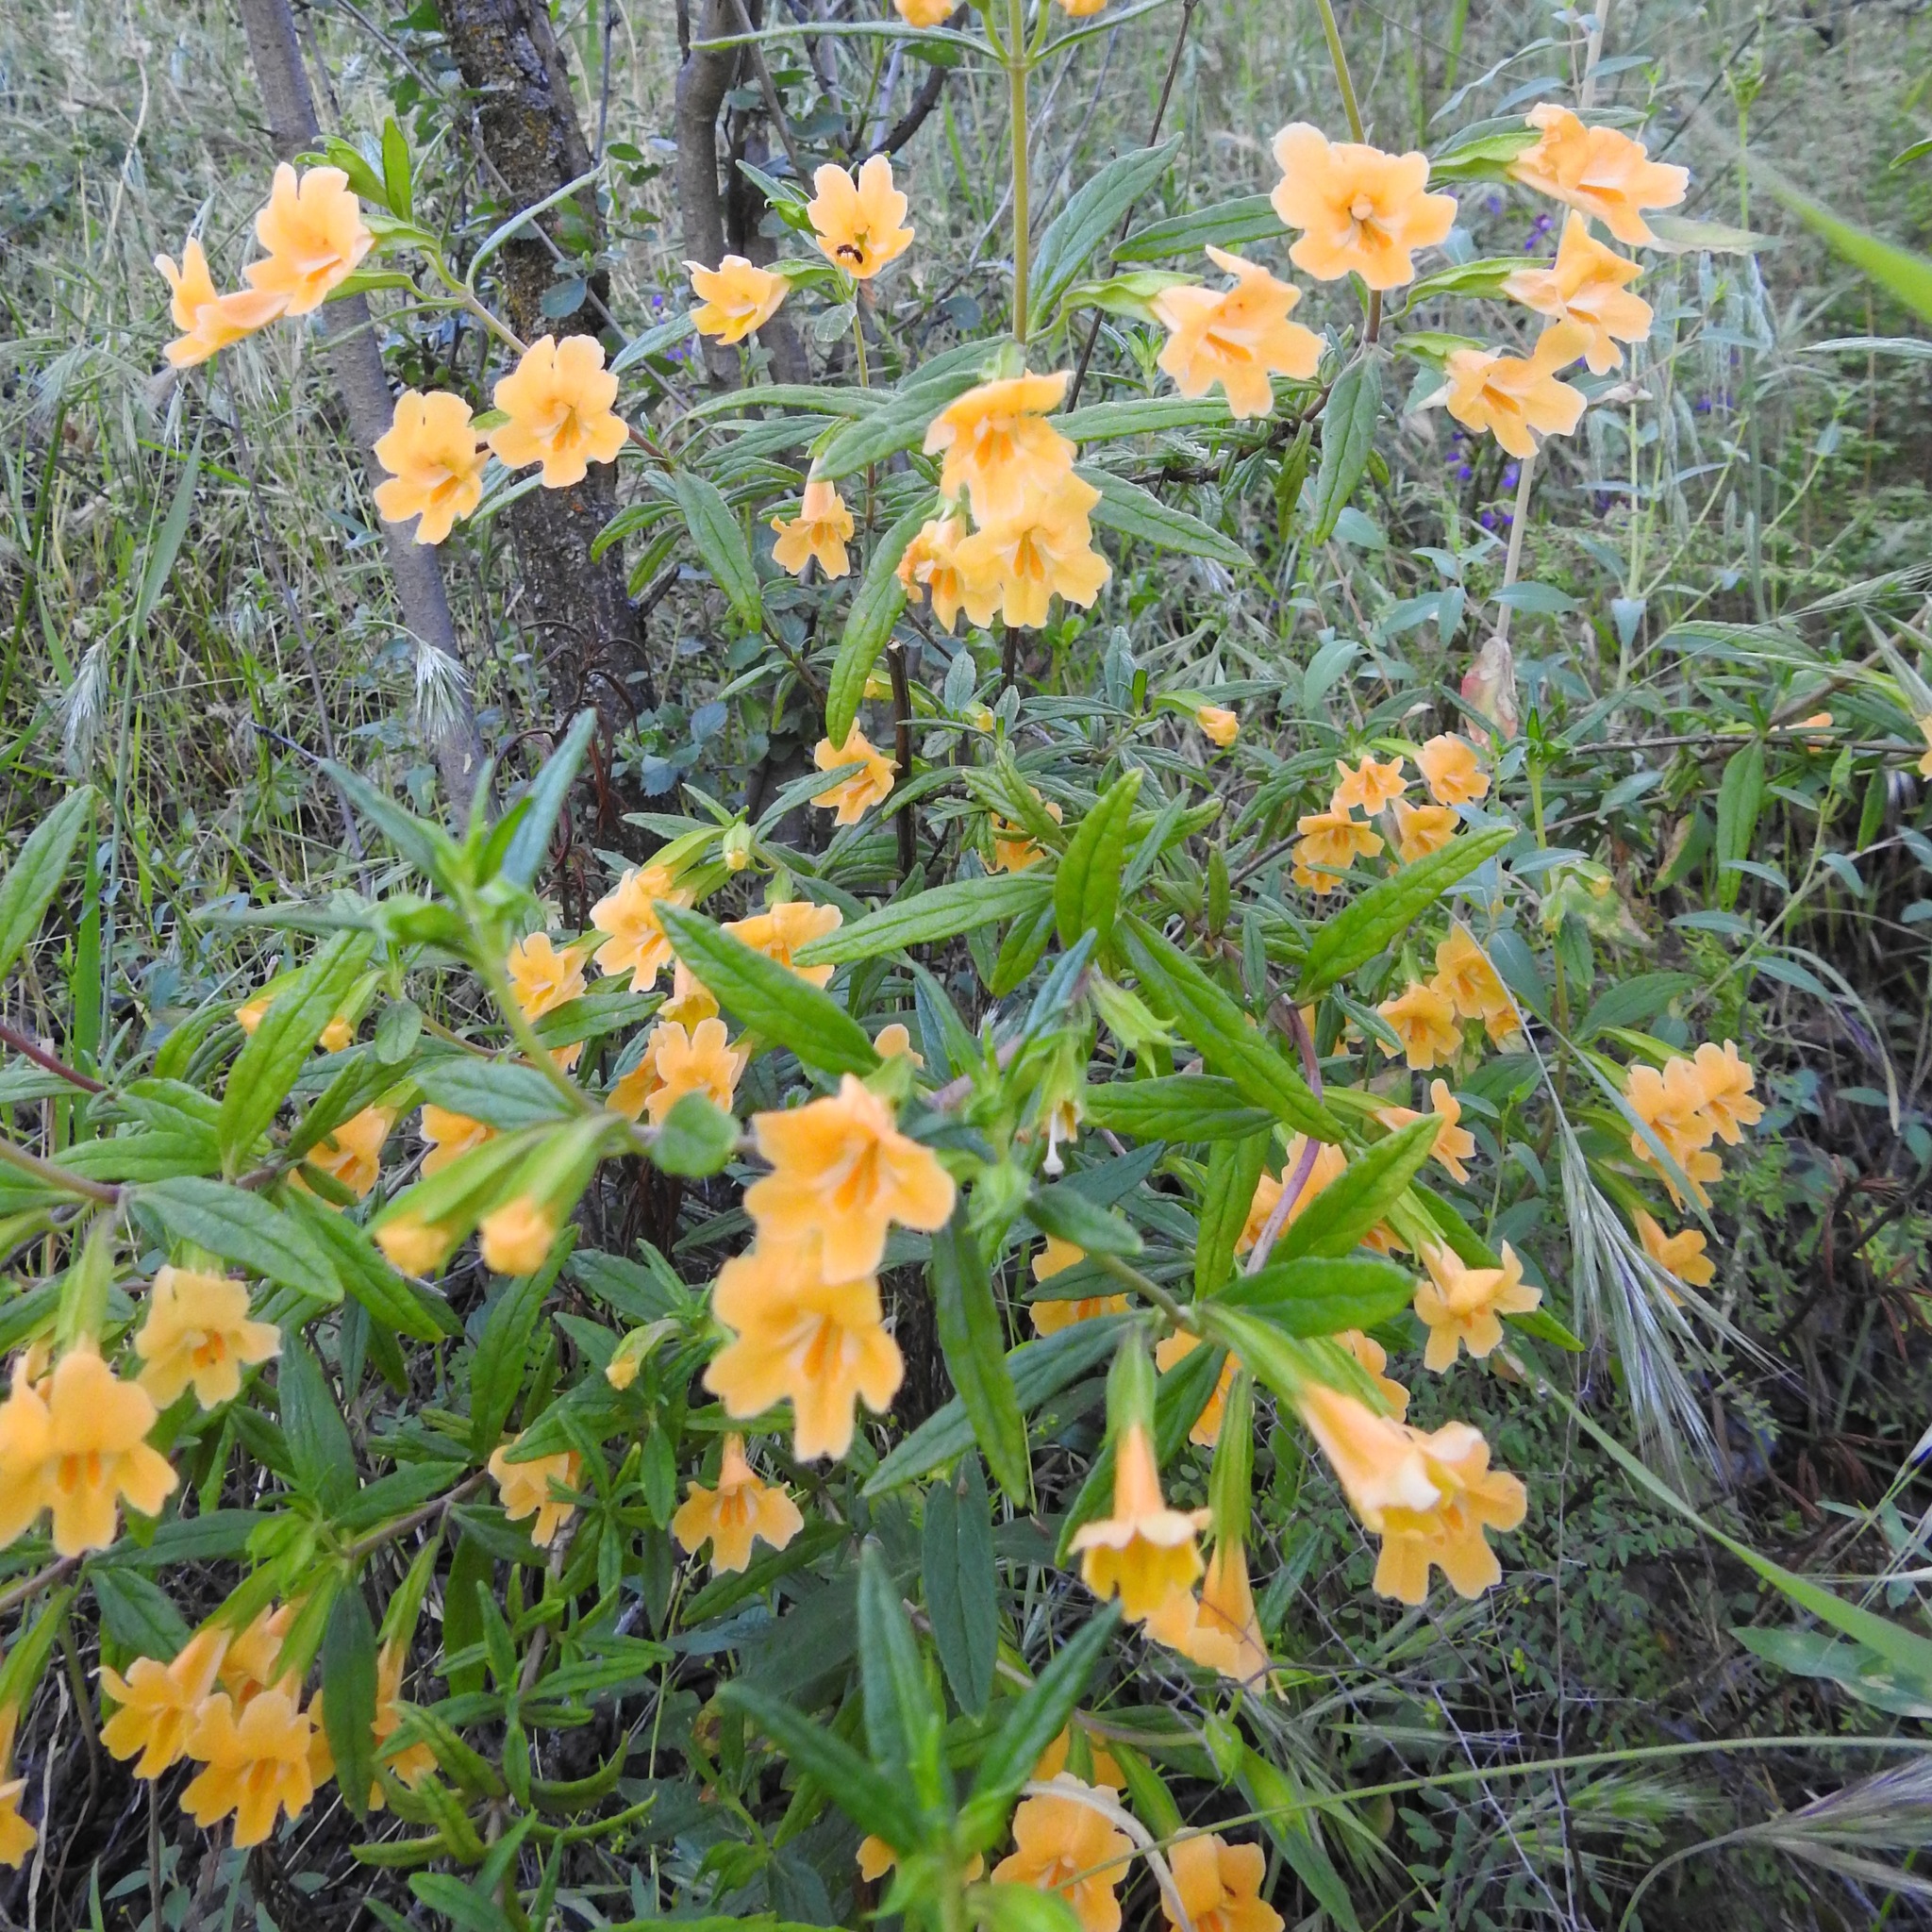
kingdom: Plantae
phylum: Tracheophyta
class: Magnoliopsida
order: Lamiales
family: Phrymaceae
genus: Diplacus
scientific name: Diplacus aurantiacus
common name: Bush monkey-flower
